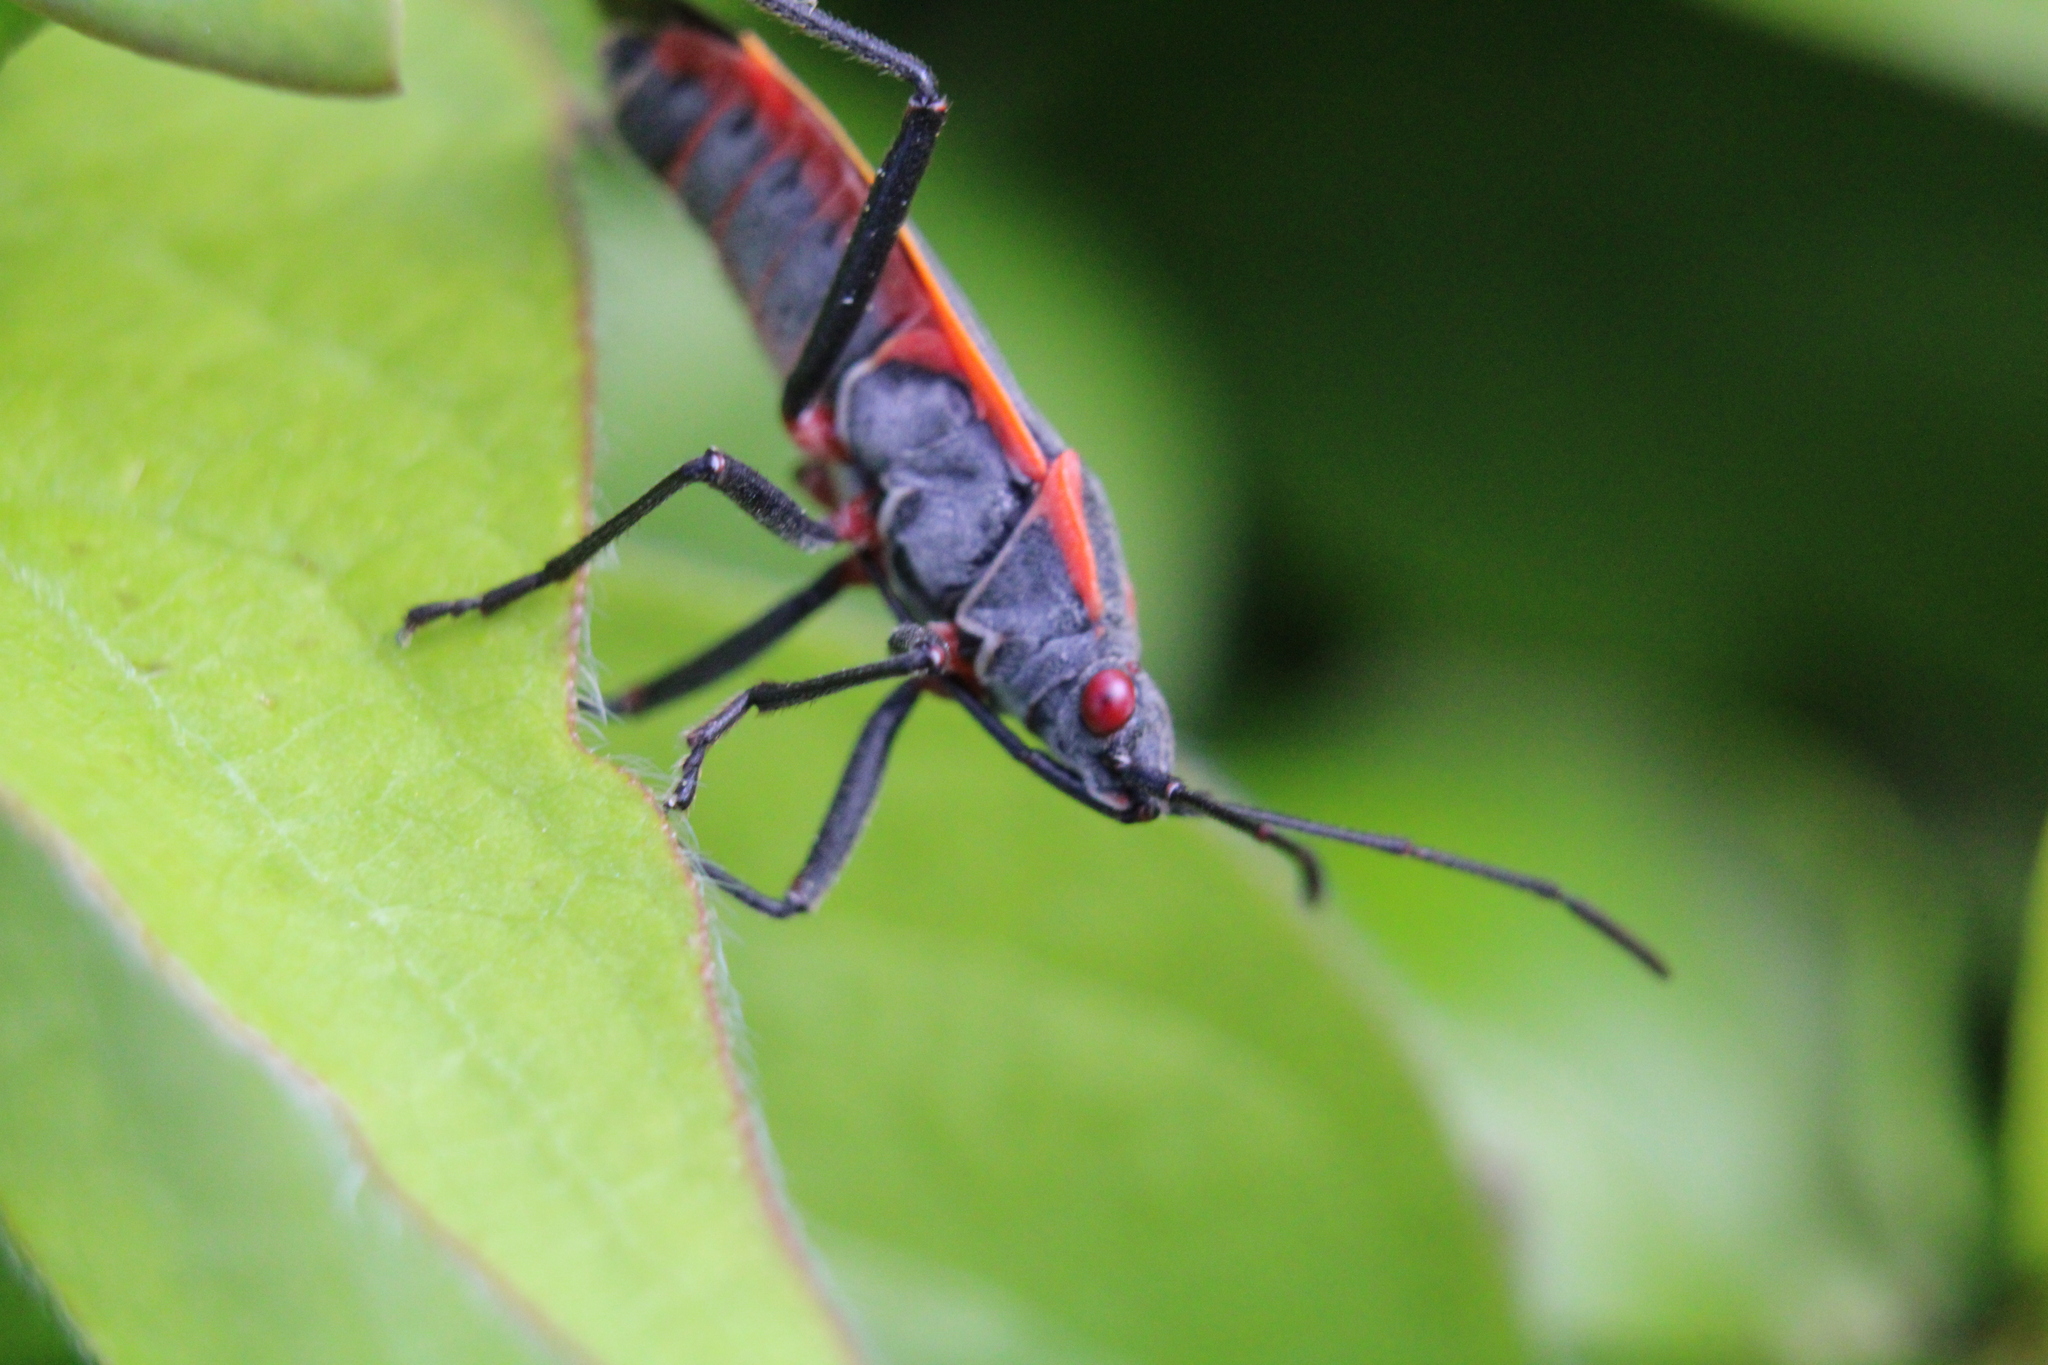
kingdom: Animalia
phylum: Arthropoda
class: Insecta
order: Hemiptera
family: Rhopalidae
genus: Boisea
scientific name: Boisea trivittata
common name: Boxelder bug
